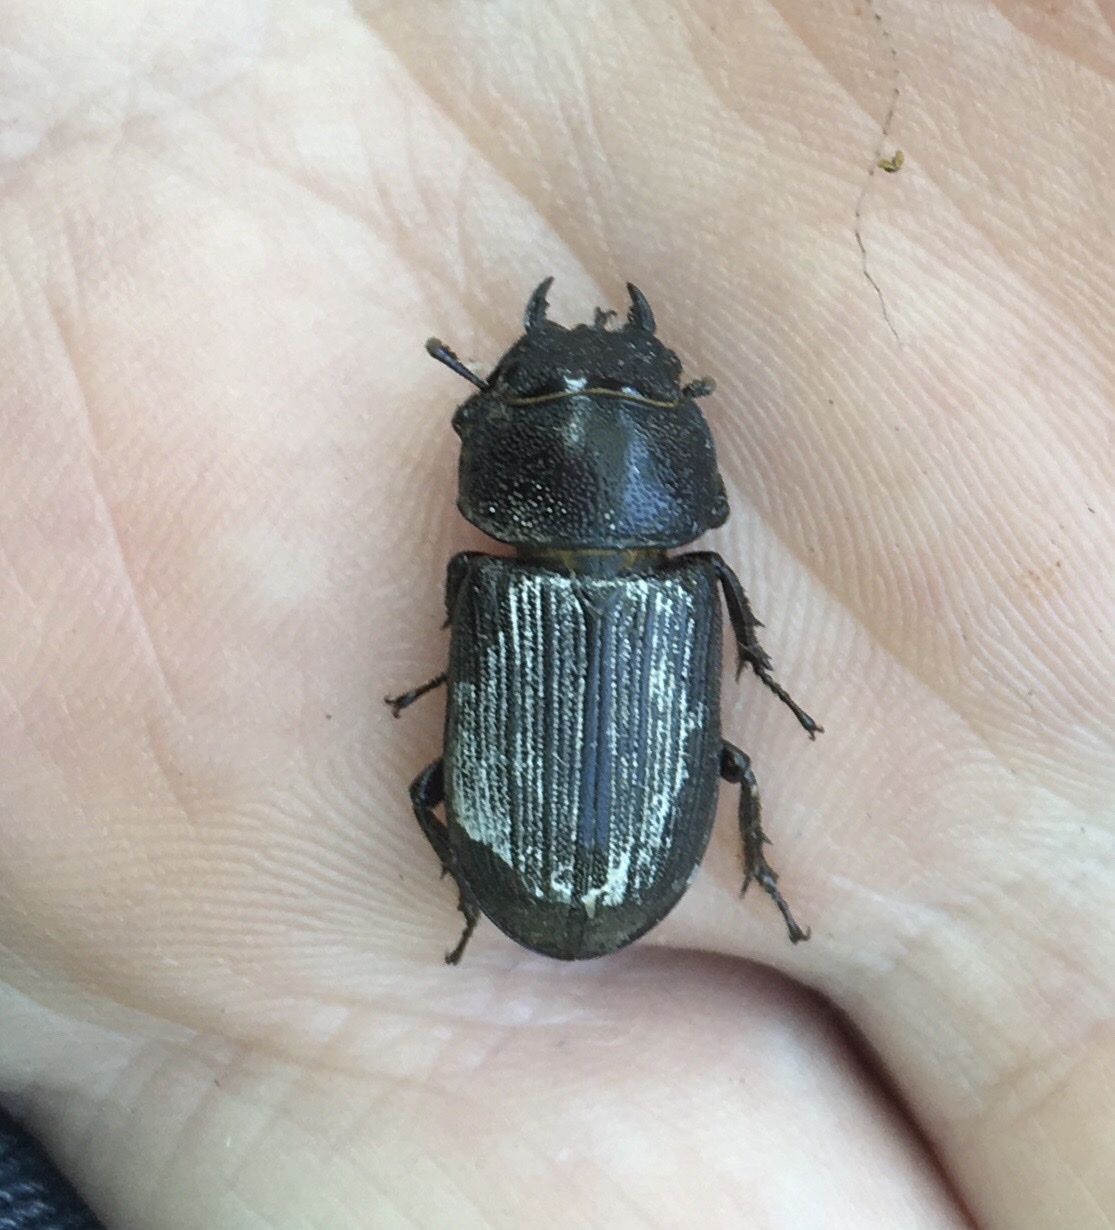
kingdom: Animalia
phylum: Arthropoda
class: Insecta
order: Coleoptera
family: Lucanidae
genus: Dorcus
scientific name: Dorcus parallelus
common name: Antelope beetle
